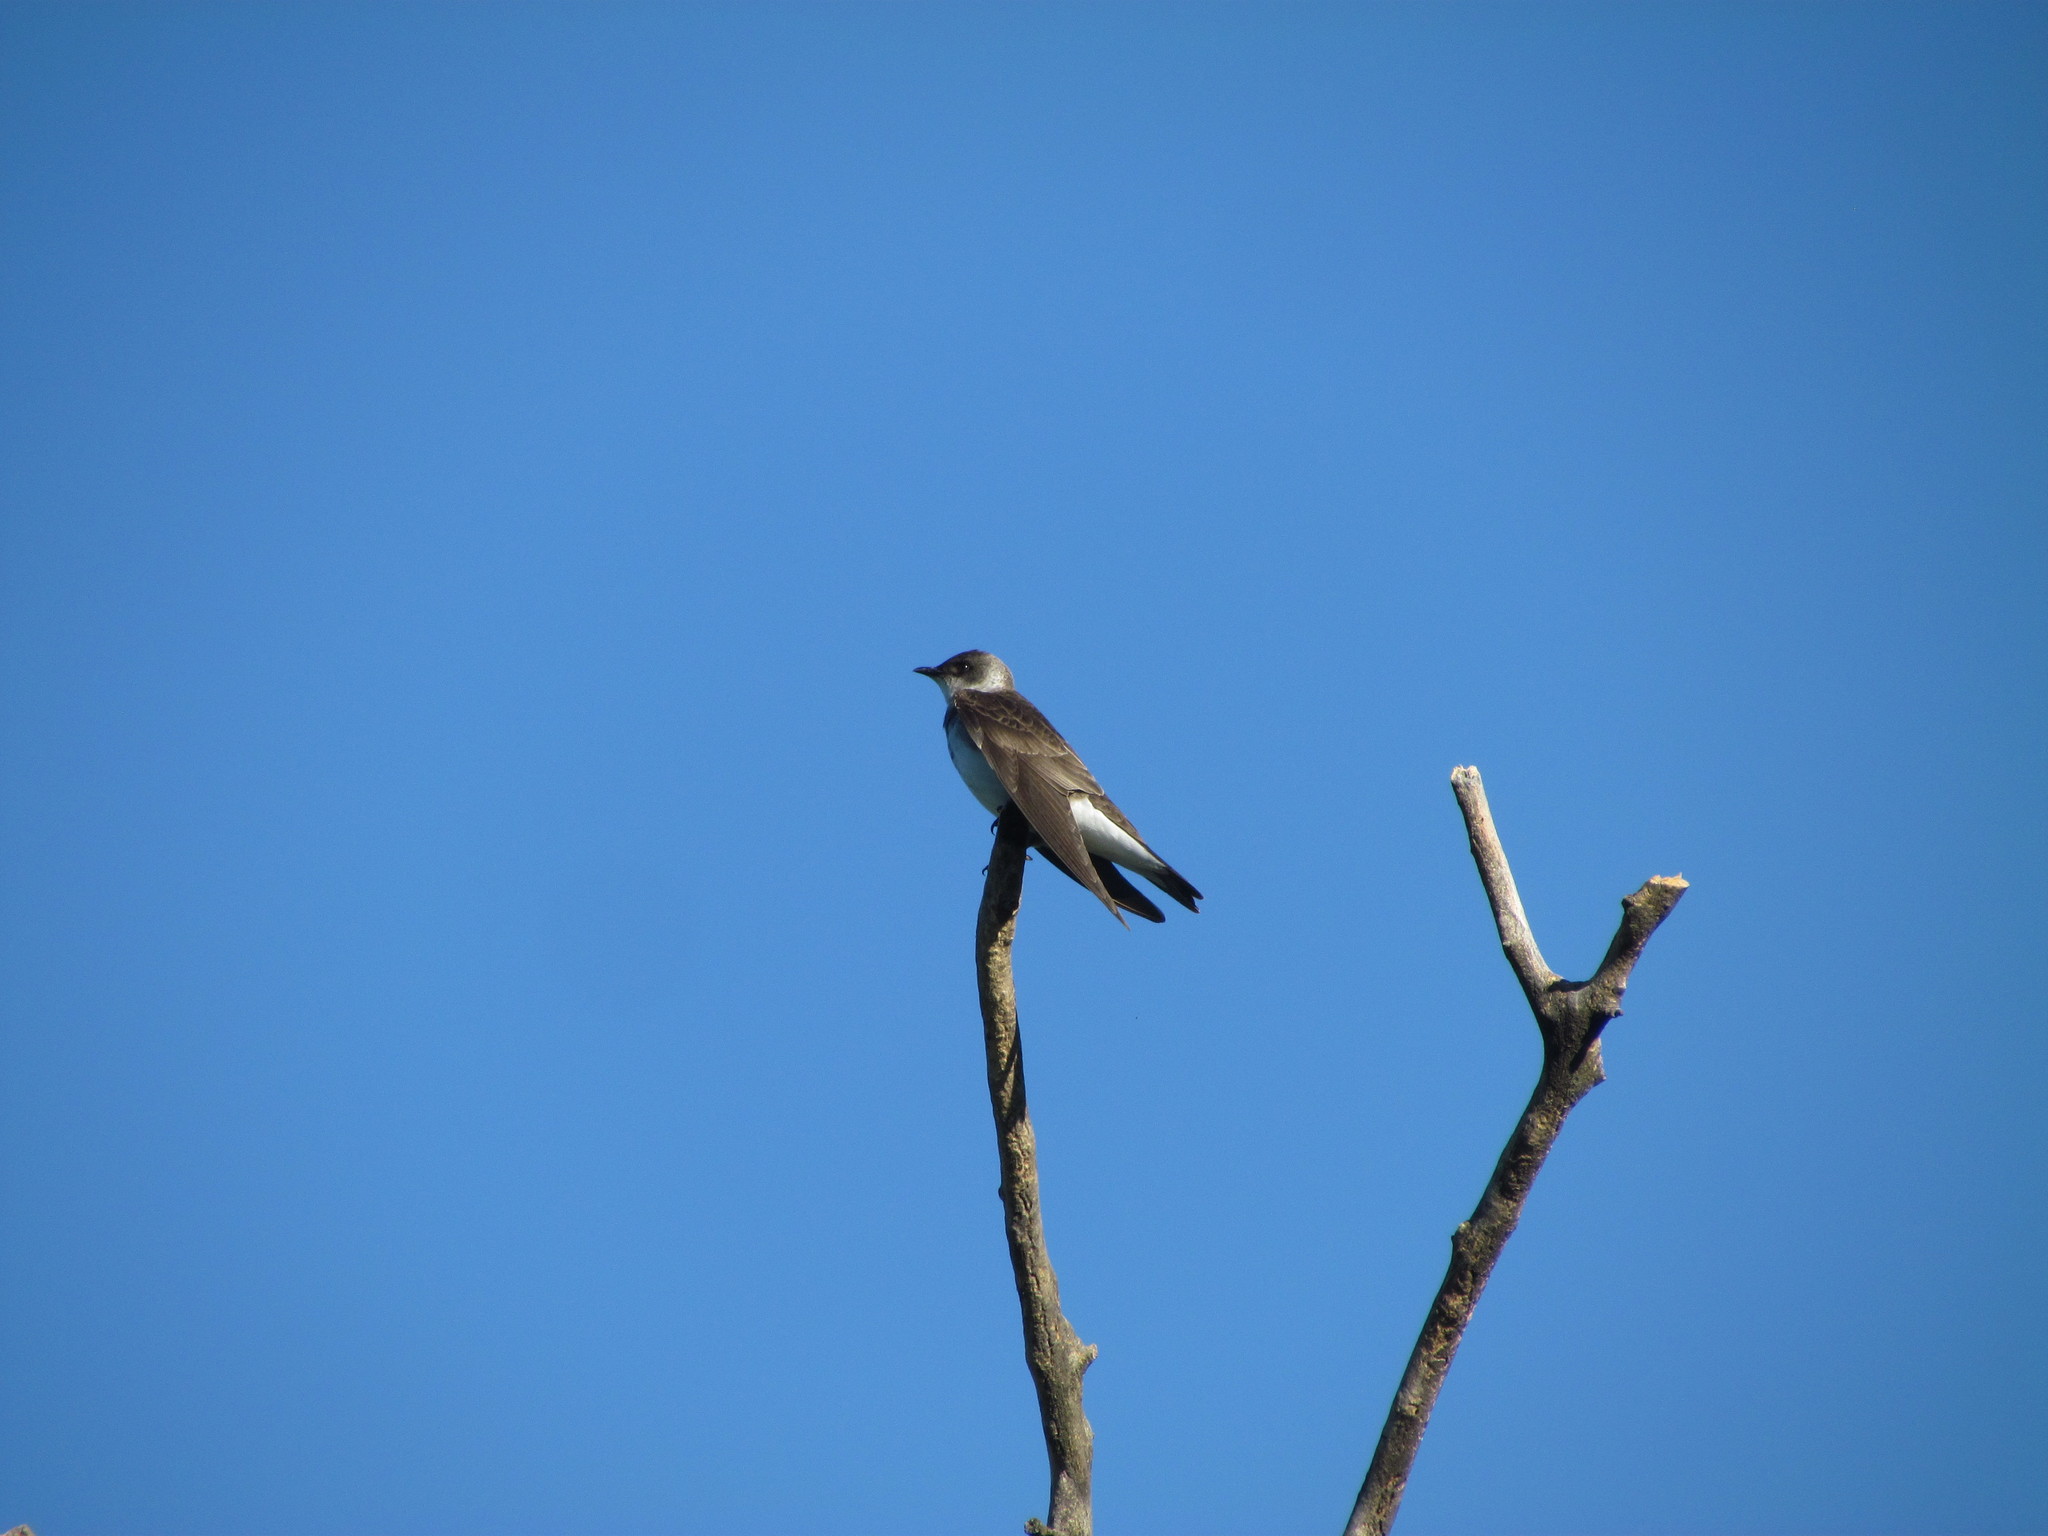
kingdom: Animalia
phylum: Chordata
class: Aves
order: Passeriformes
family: Hirundinidae
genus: Progne
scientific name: Progne tapera
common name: Brown-chested martin
